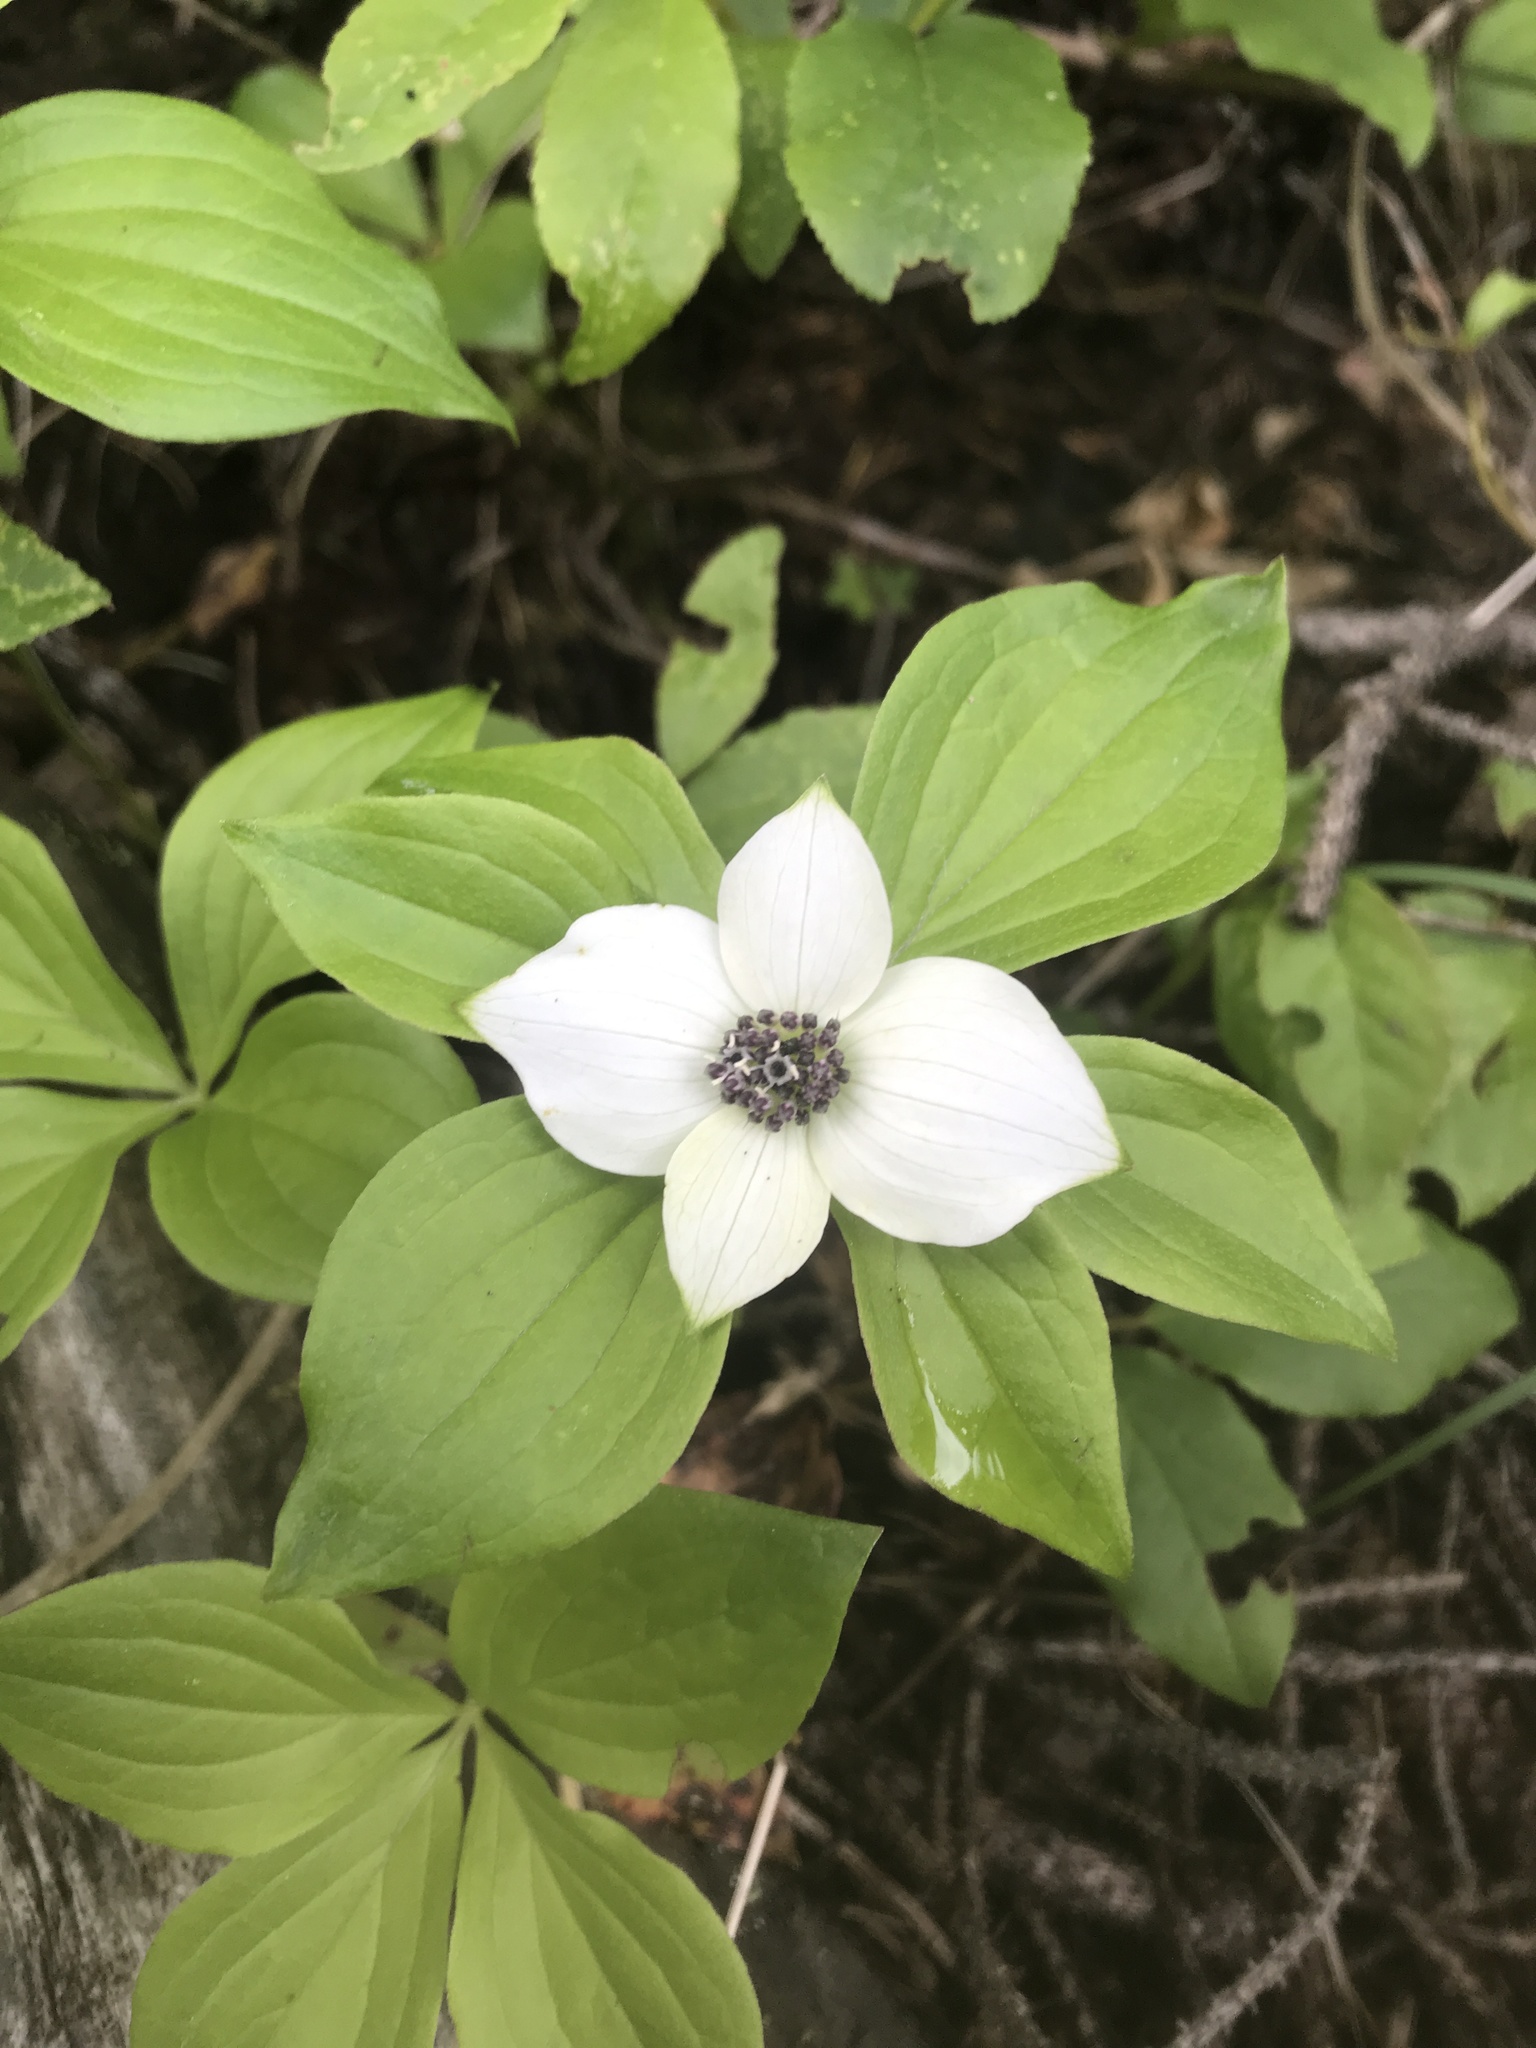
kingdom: Plantae
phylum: Tracheophyta
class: Magnoliopsida
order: Cornales
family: Cornaceae
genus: Cornus
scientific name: Cornus unalaschkensis
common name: Alaska bunchberry
